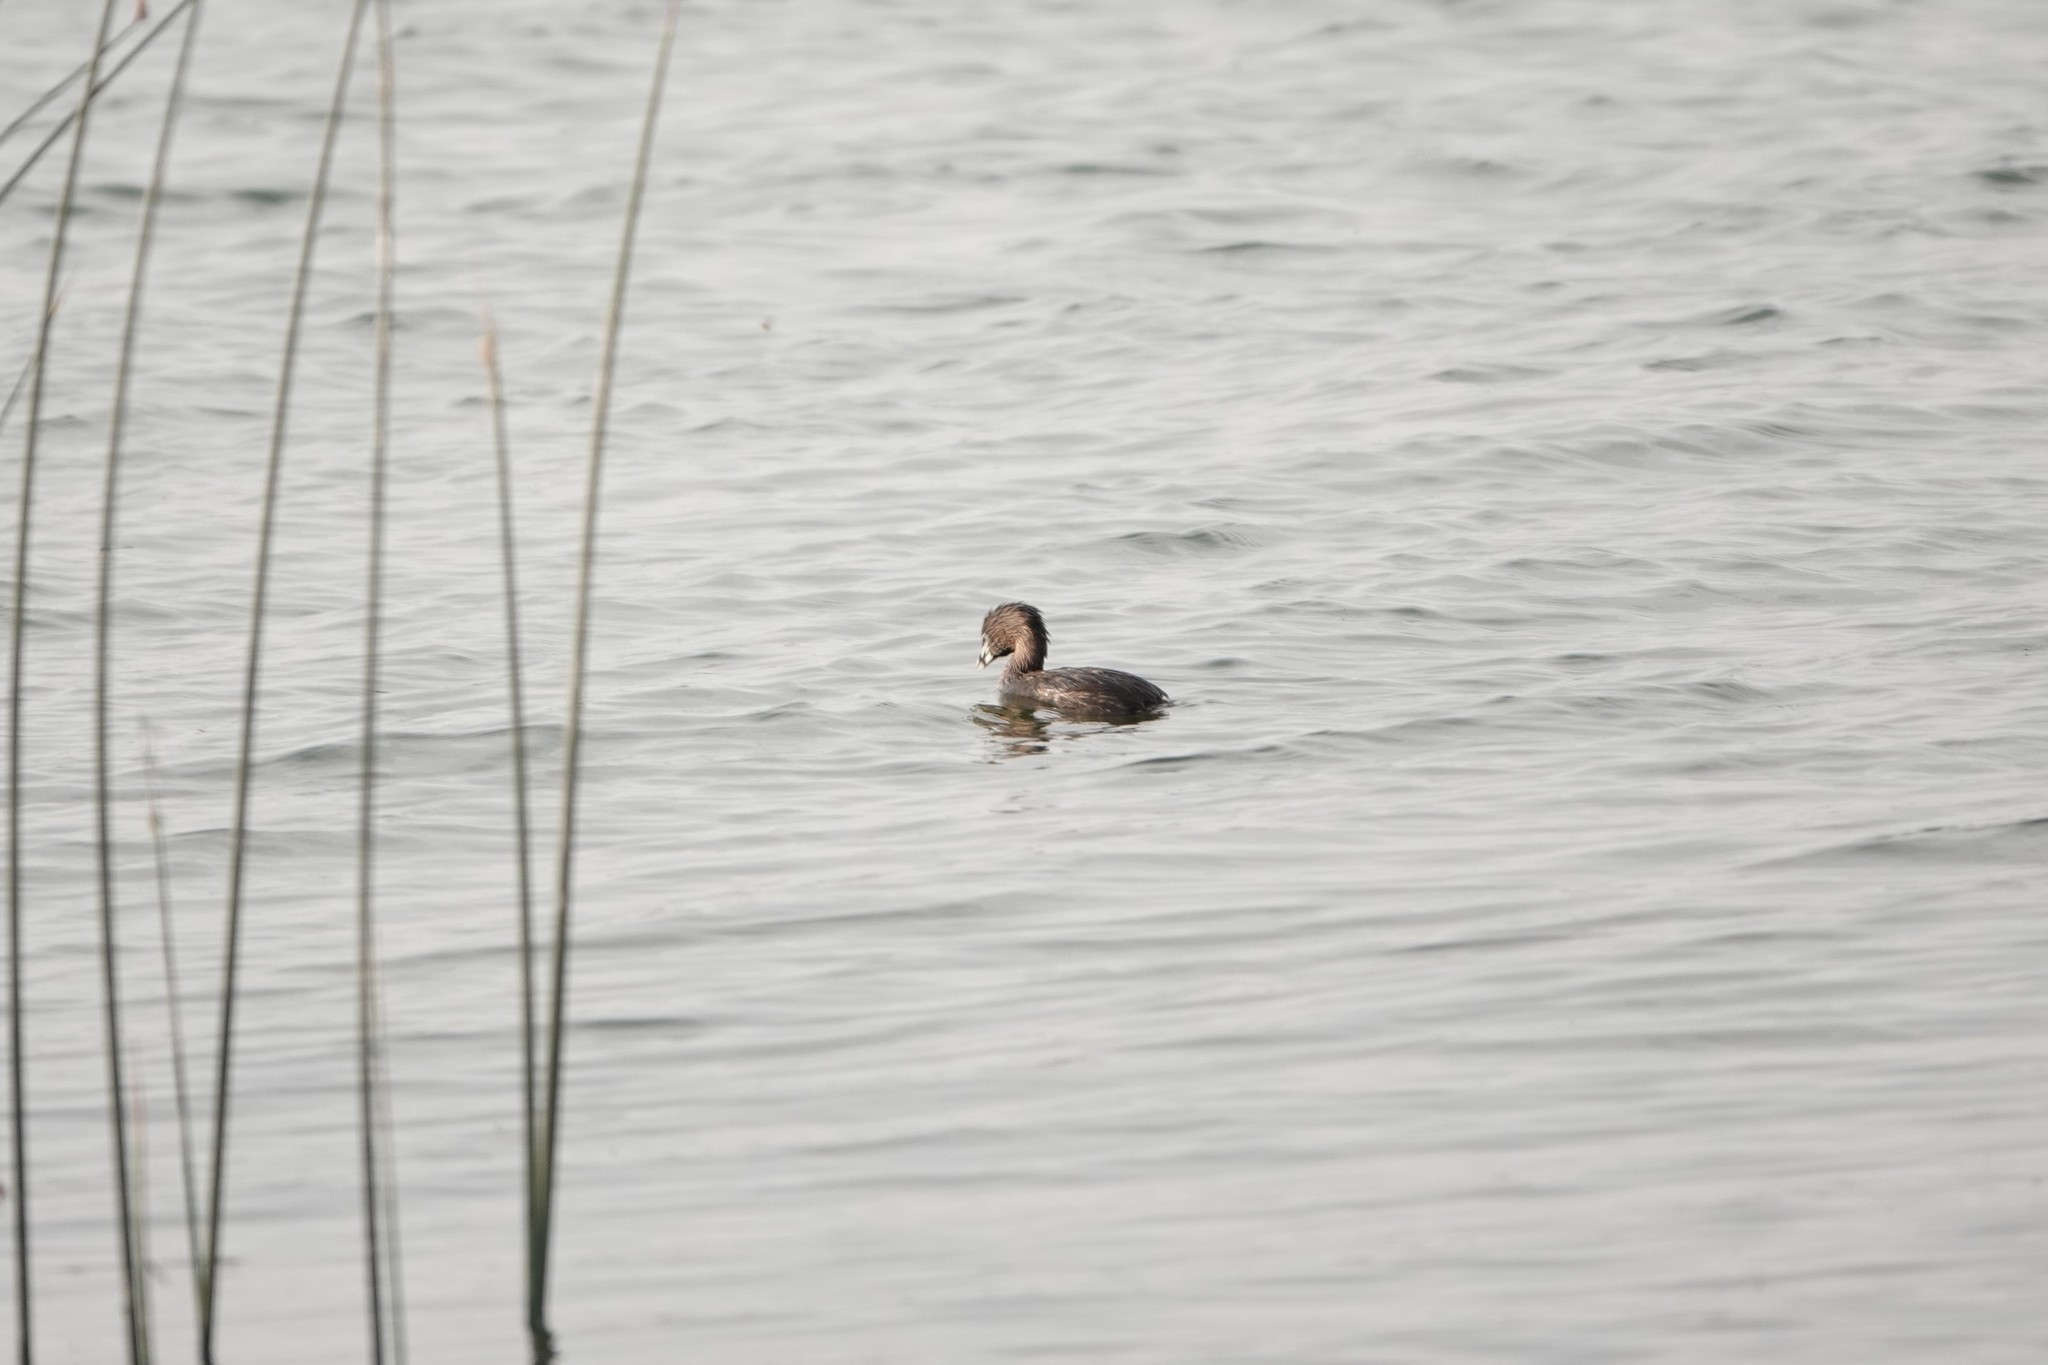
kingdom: Animalia
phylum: Chordata
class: Aves
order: Podicipediformes
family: Podicipedidae
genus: Podilymbus
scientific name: Podilymbus podiceps
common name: Pied-billed grebe
